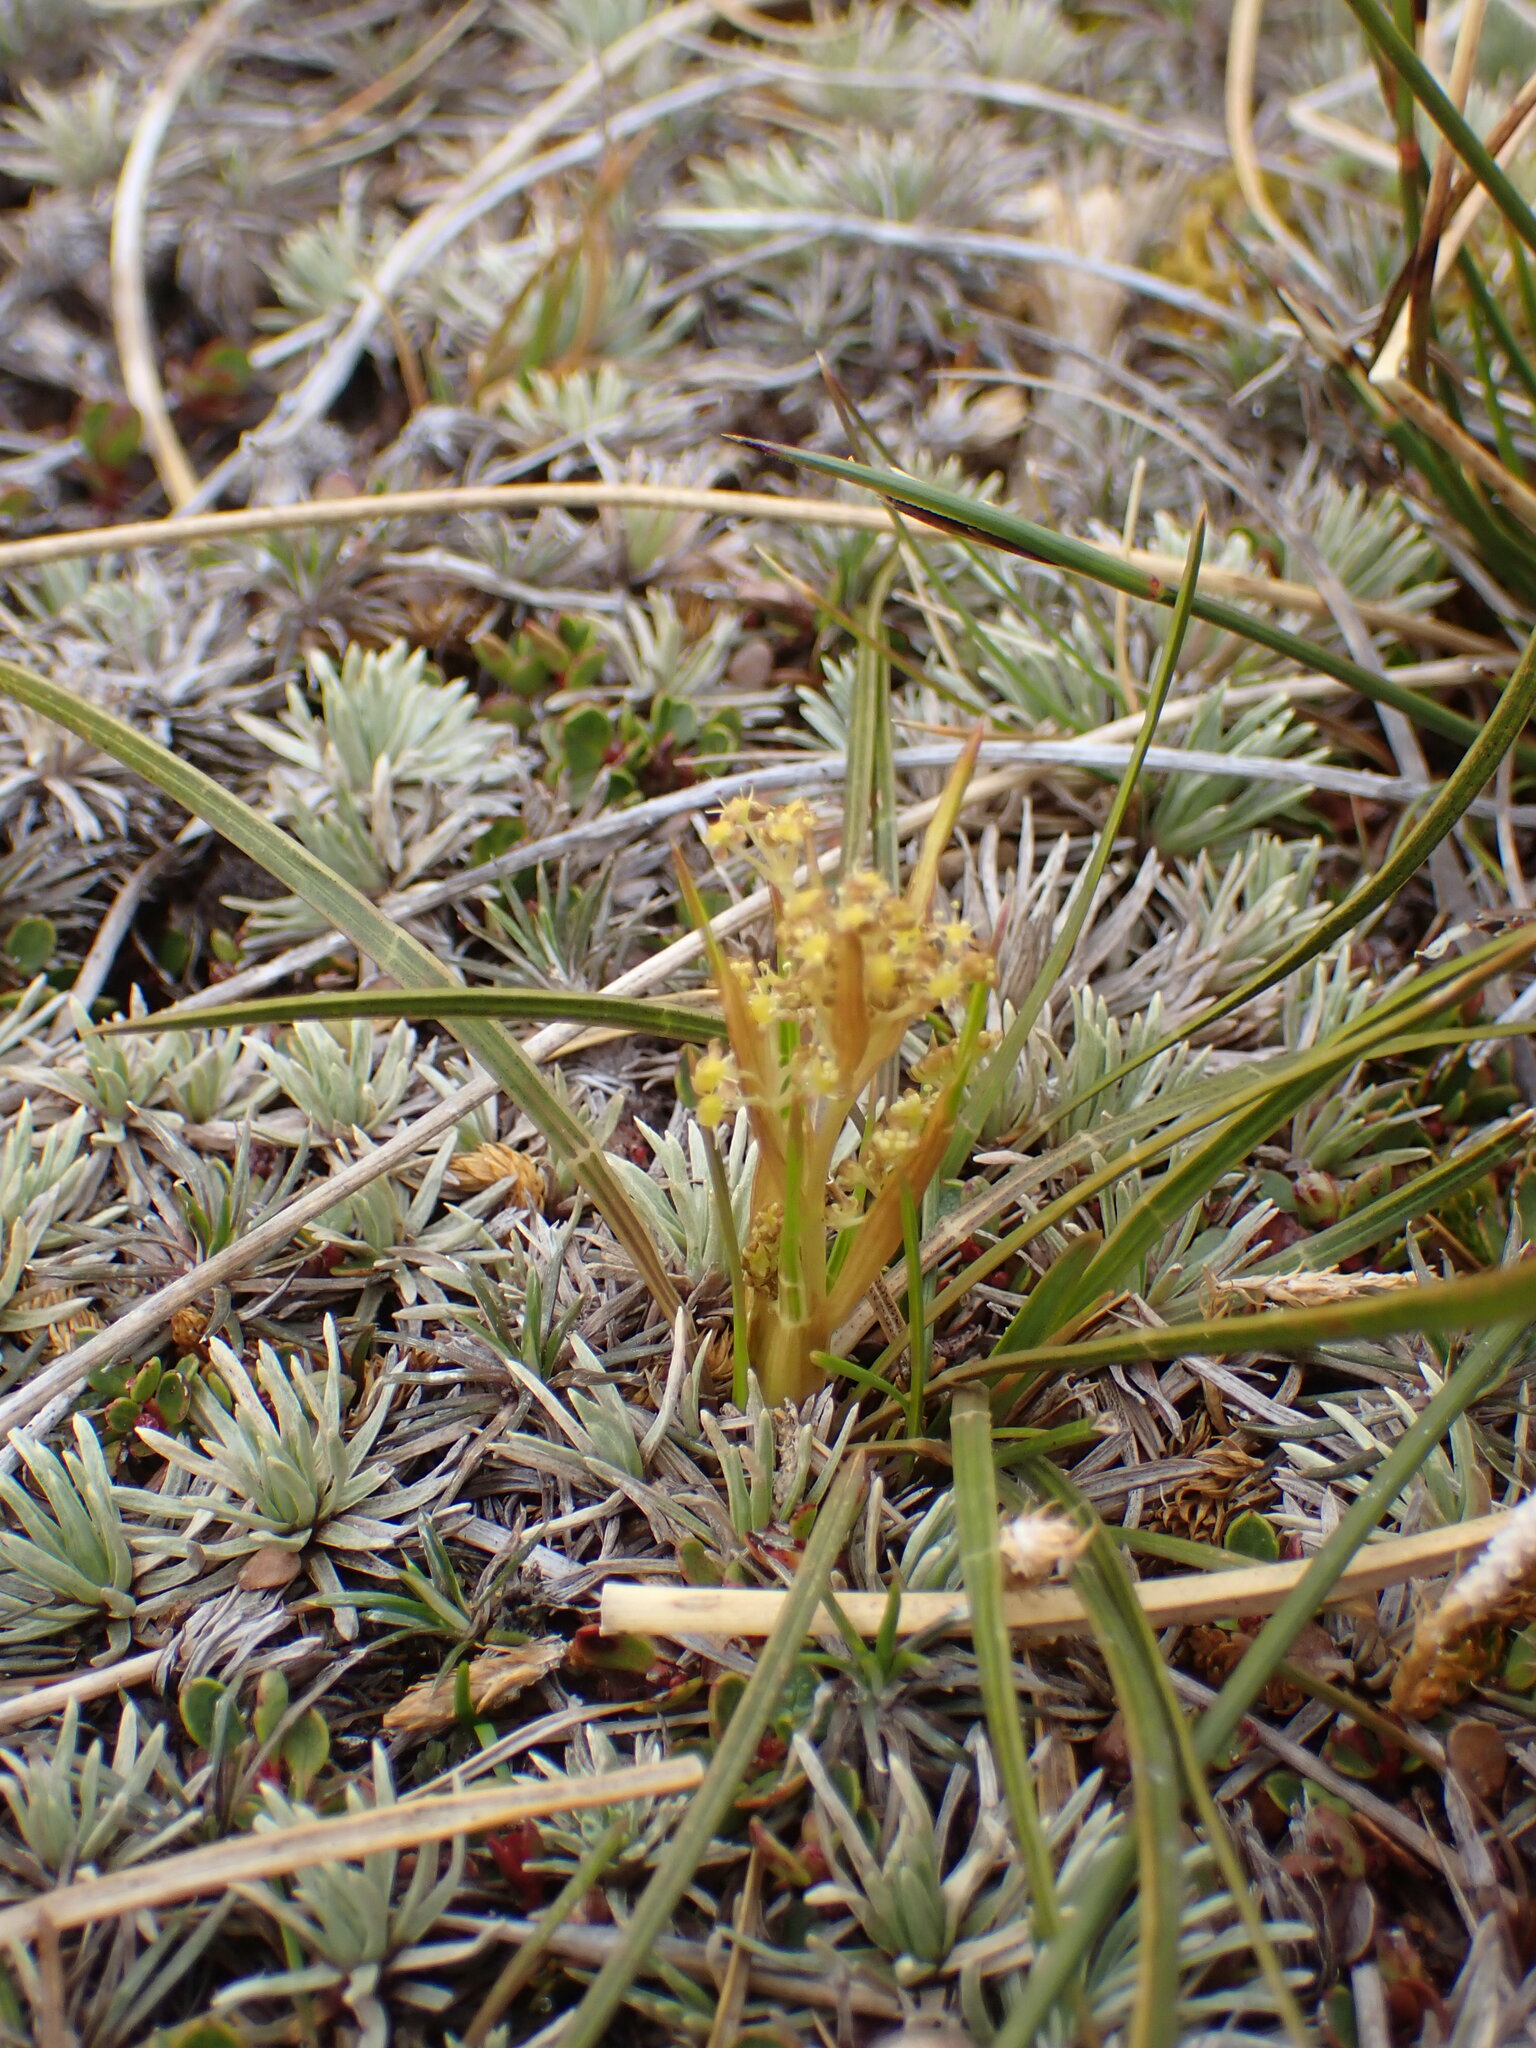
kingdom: Plantae
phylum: Tracheophyta
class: Magnoliopsida
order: Apiales
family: Apiaceae
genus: Aciphylla
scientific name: Aciphylla lyallii
